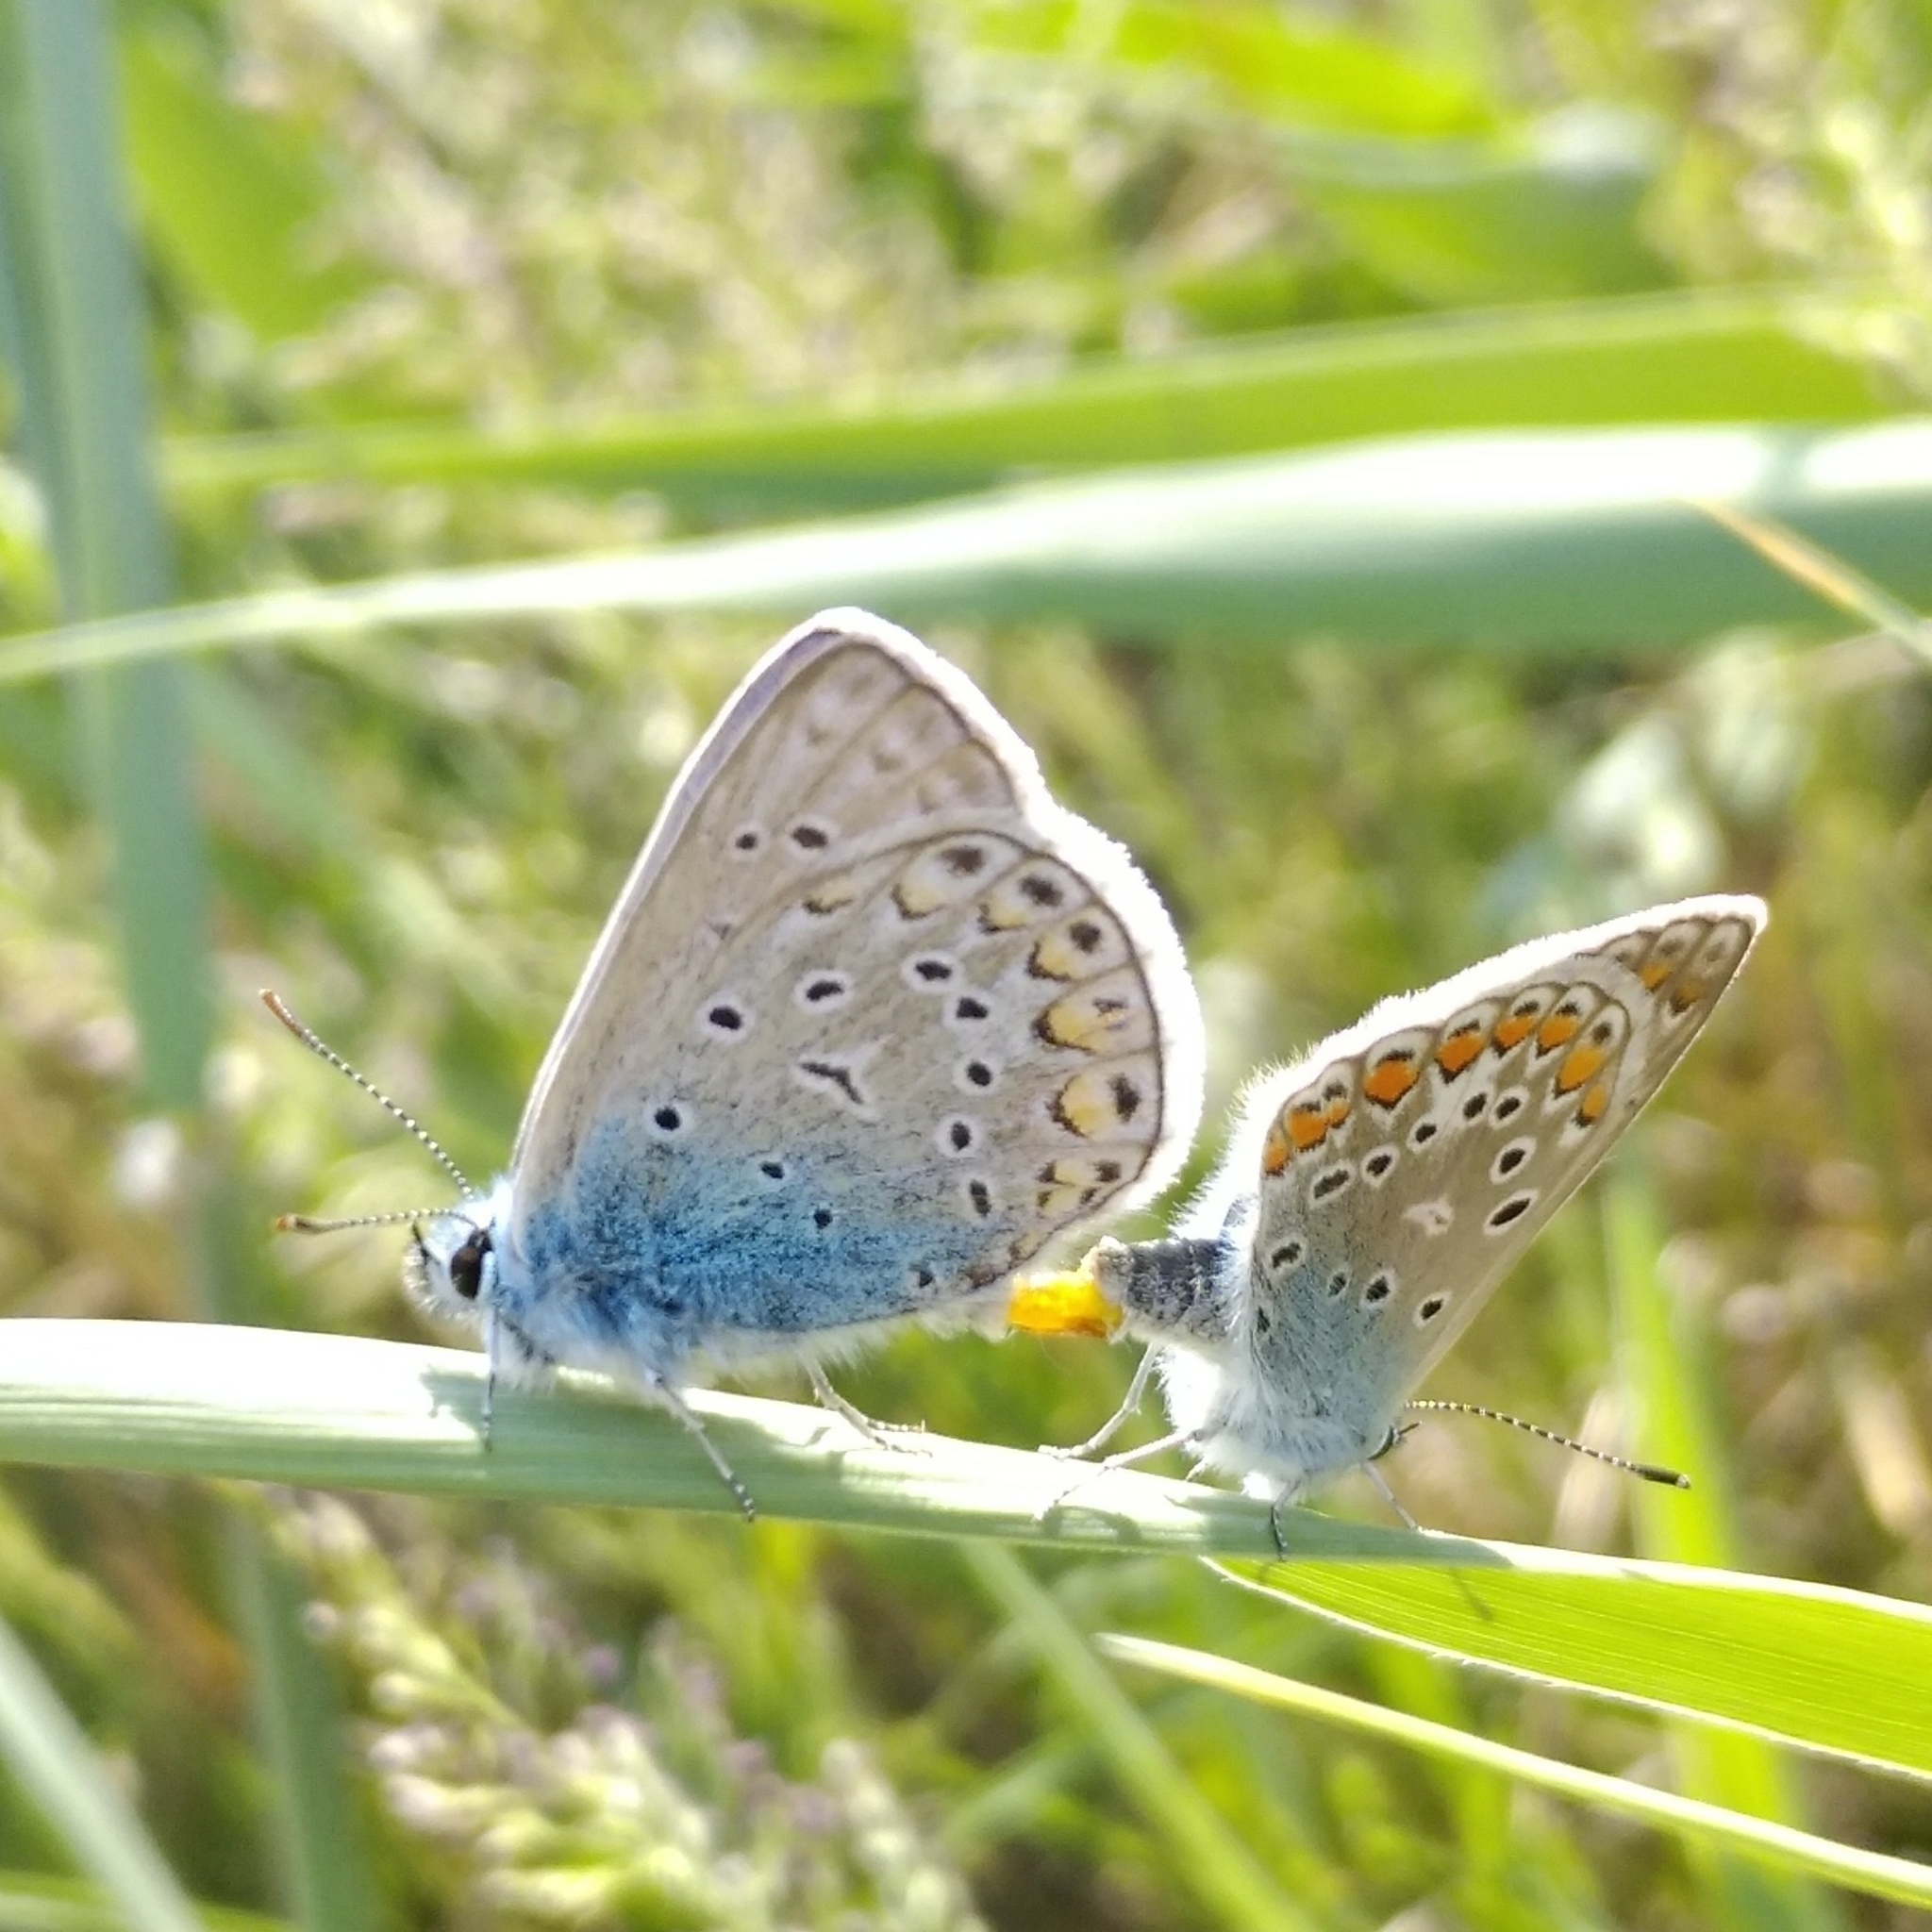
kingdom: Animalia
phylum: Arthropoda
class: Insecta
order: Lepidoptera
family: Lycaenidae
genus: Polyommatus
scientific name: Polyommatus icarus
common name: Common blue
